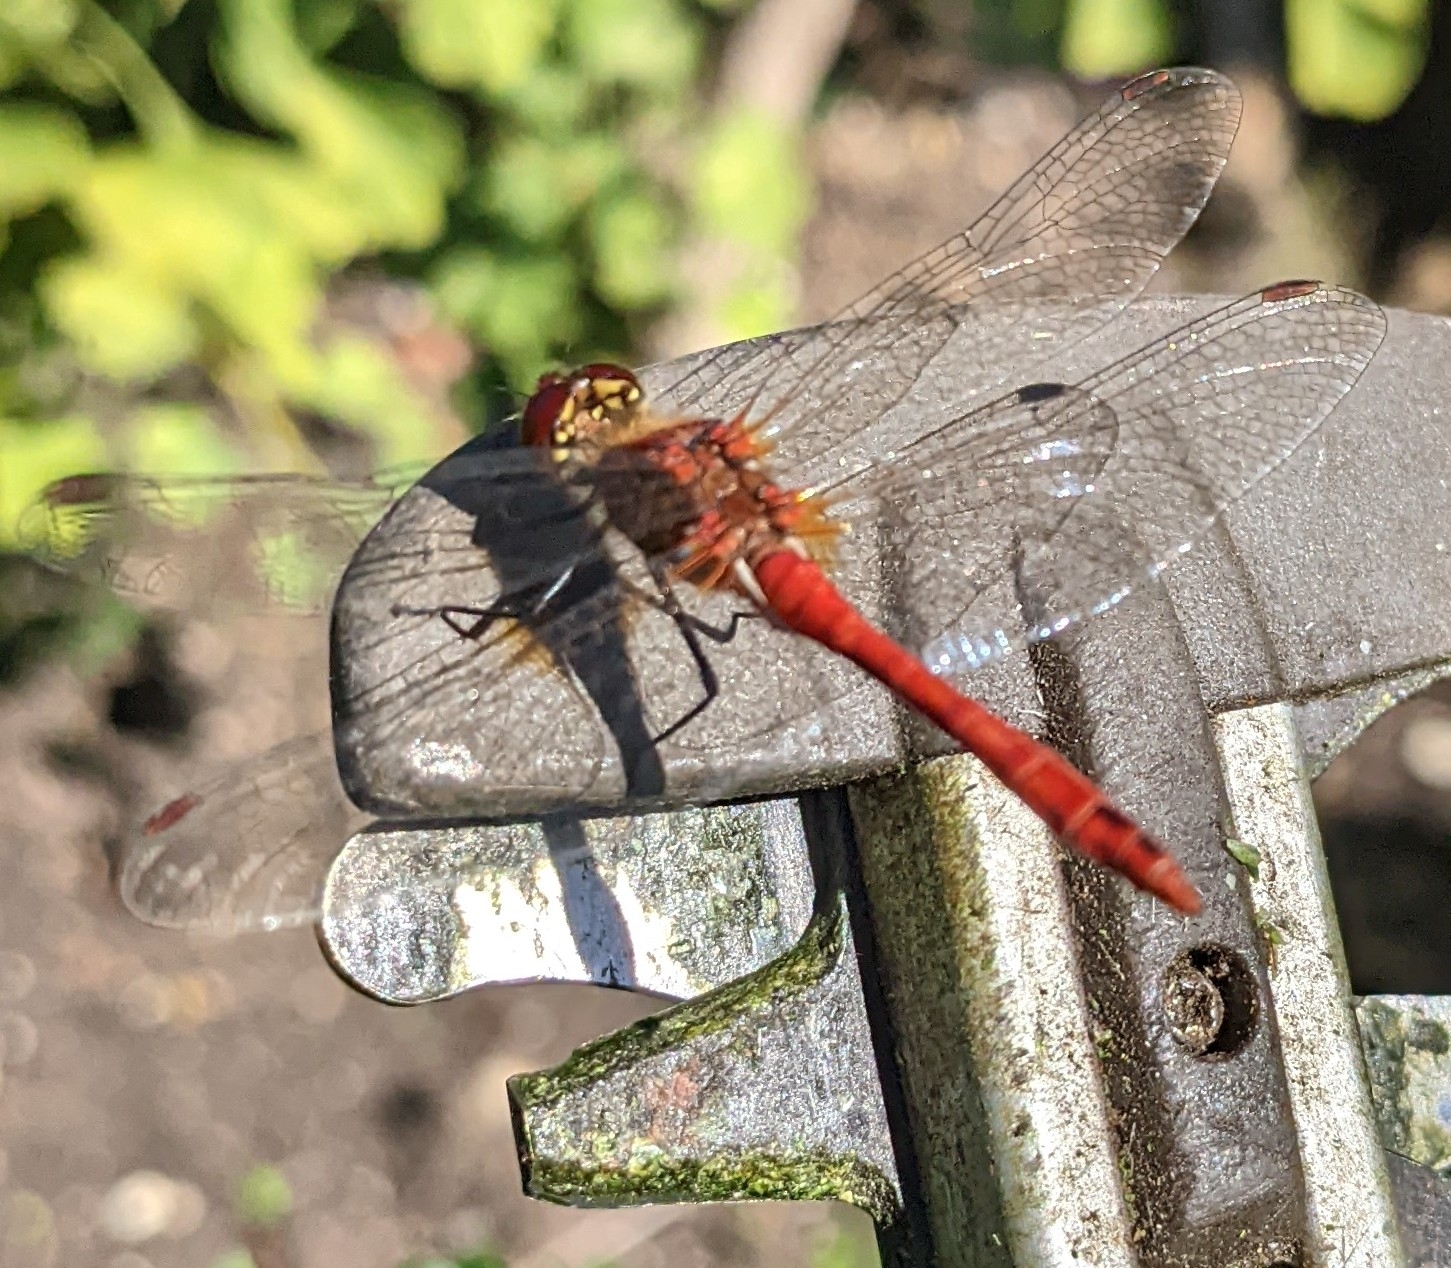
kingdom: Animalia
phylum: Arthropoda
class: Insecta
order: Odonata
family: Libellulidae
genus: Sympetrum
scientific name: Sympetrum sanguineum
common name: Ruddy darter
